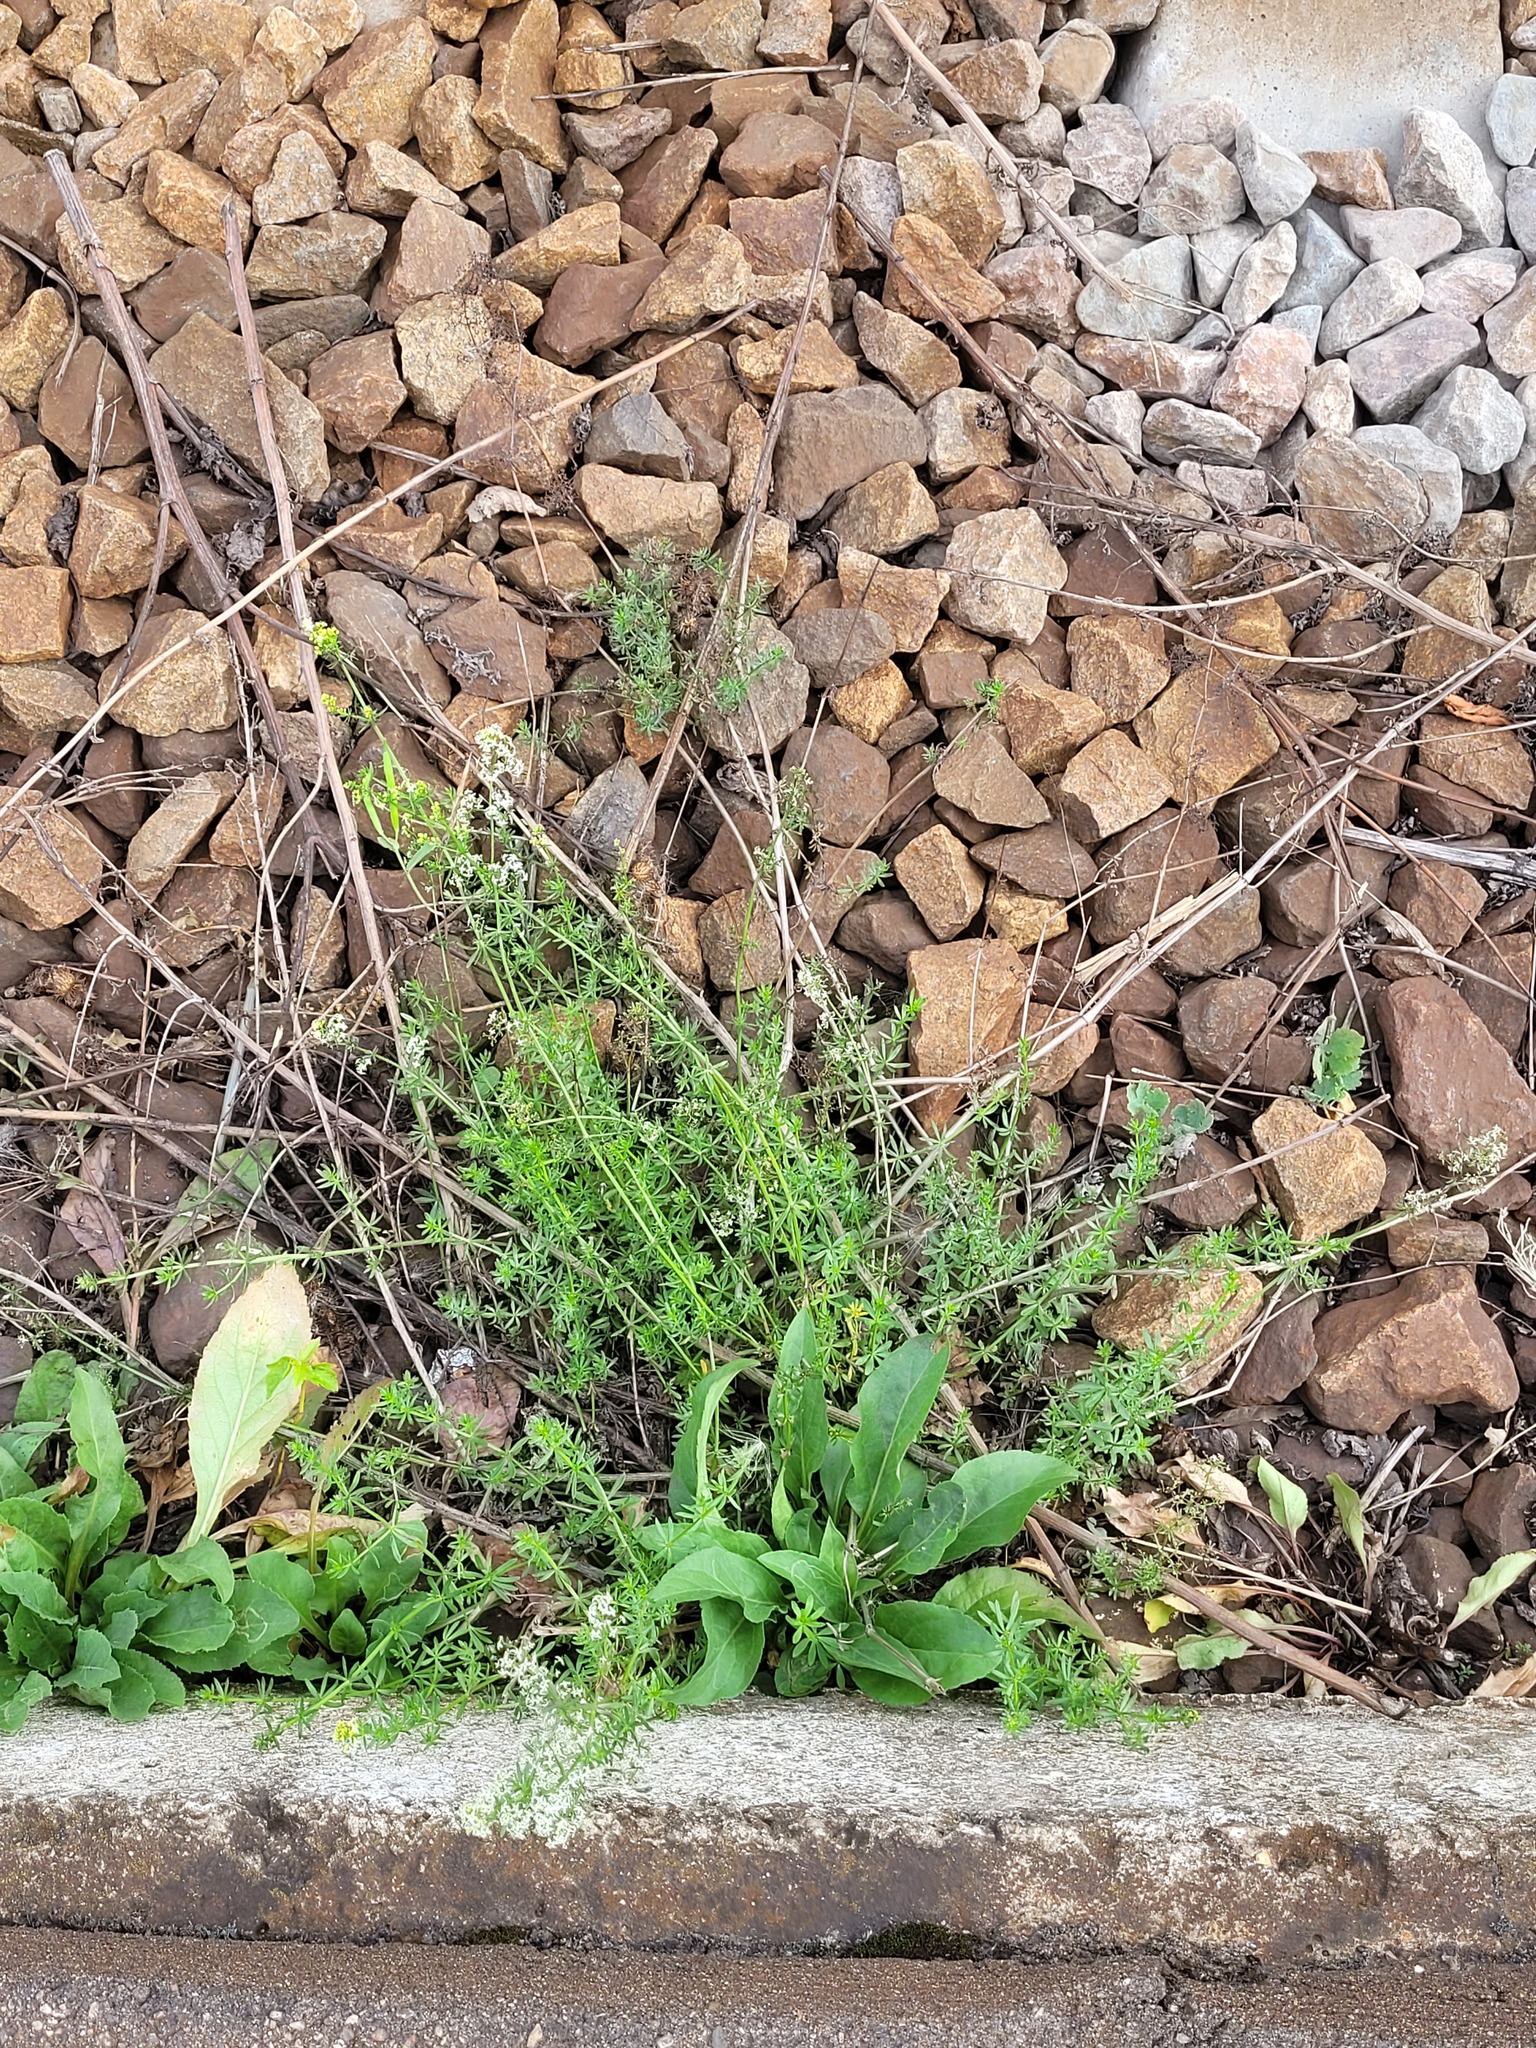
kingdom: Plantae
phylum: Tracheophyta
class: Magnoliopsida
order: Gentianales
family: Rubiaceae
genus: Galium
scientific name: Galium mollugo
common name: Hedge bedstraw
